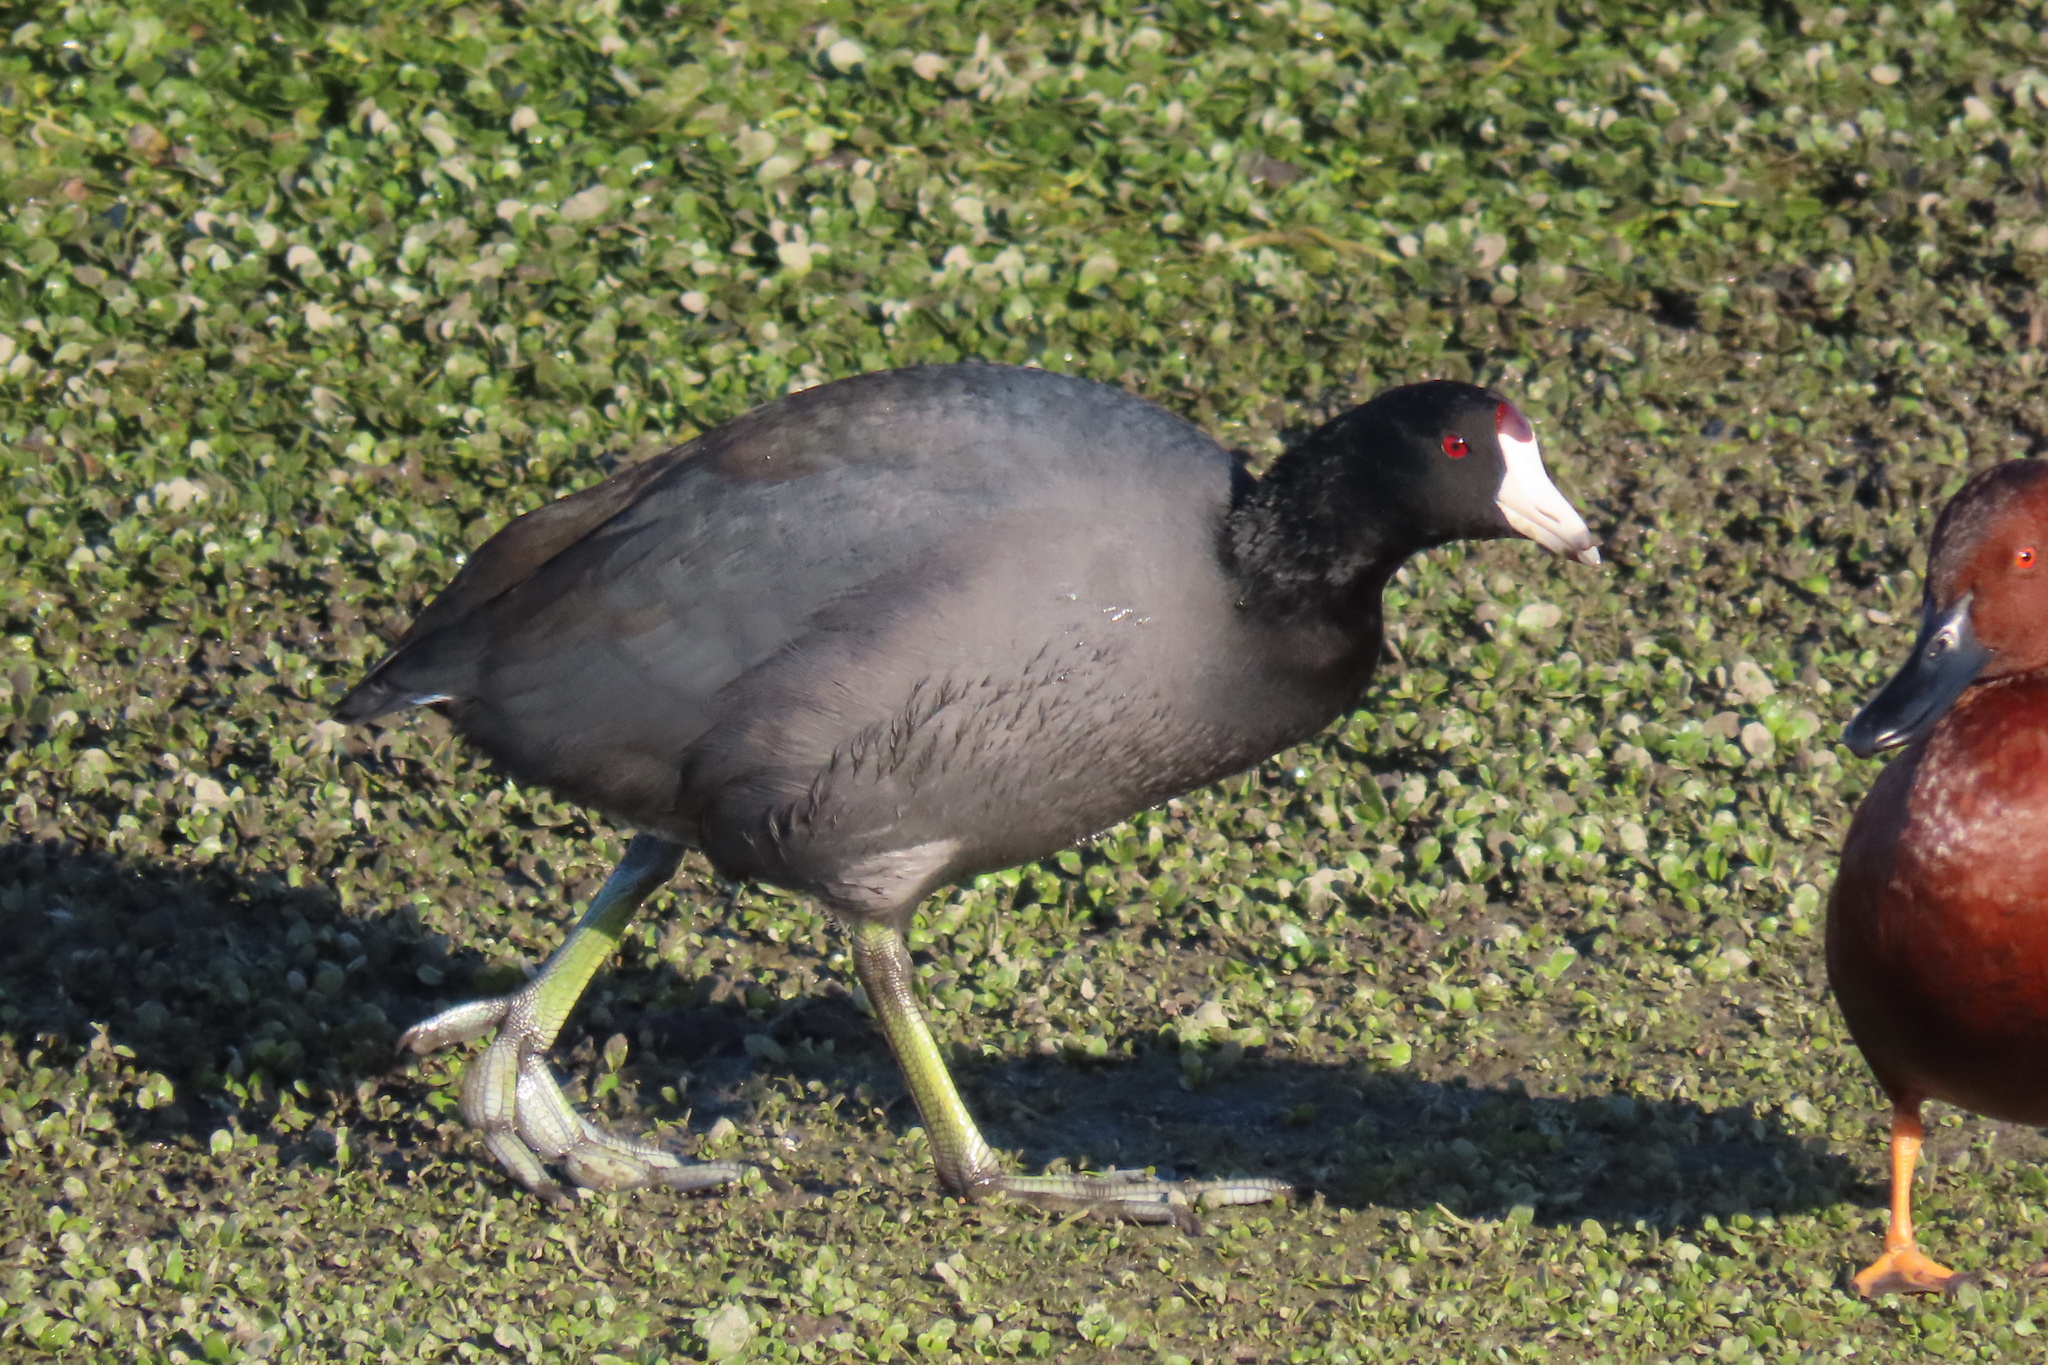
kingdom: Animalia
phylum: Chordata
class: Aves
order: Gruiformes
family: Rallidae
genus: Fulica
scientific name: Fulica americana
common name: American coot
